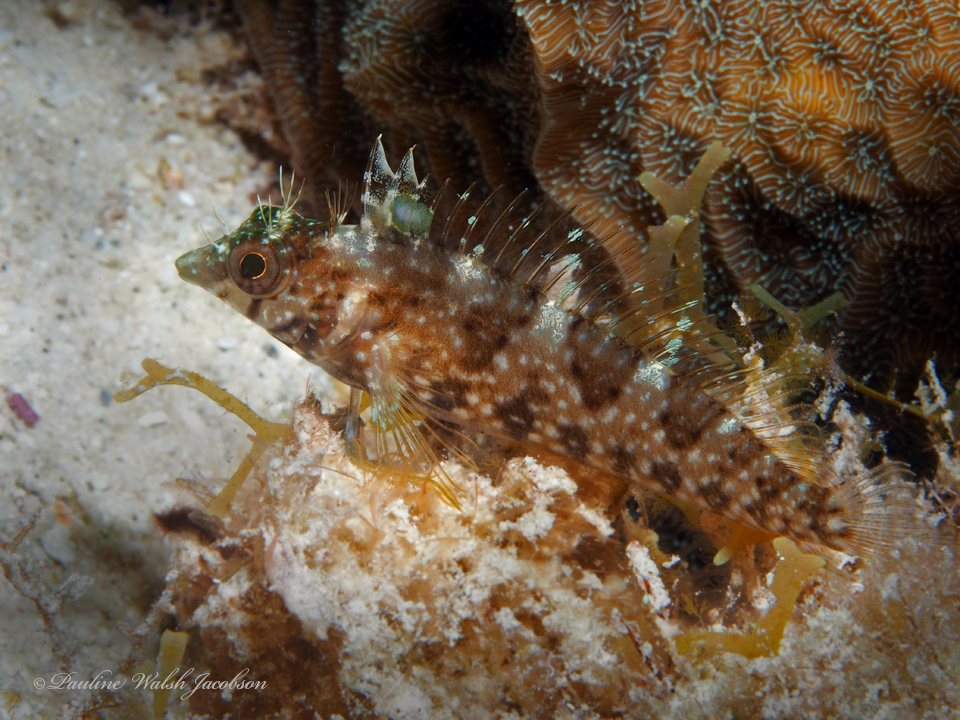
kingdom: Animalia
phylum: Chordata
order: Perciformes
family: Labrisomidae
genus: Malacoctenus
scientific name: Malacoctenus boehlkei
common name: Diamond blenny
